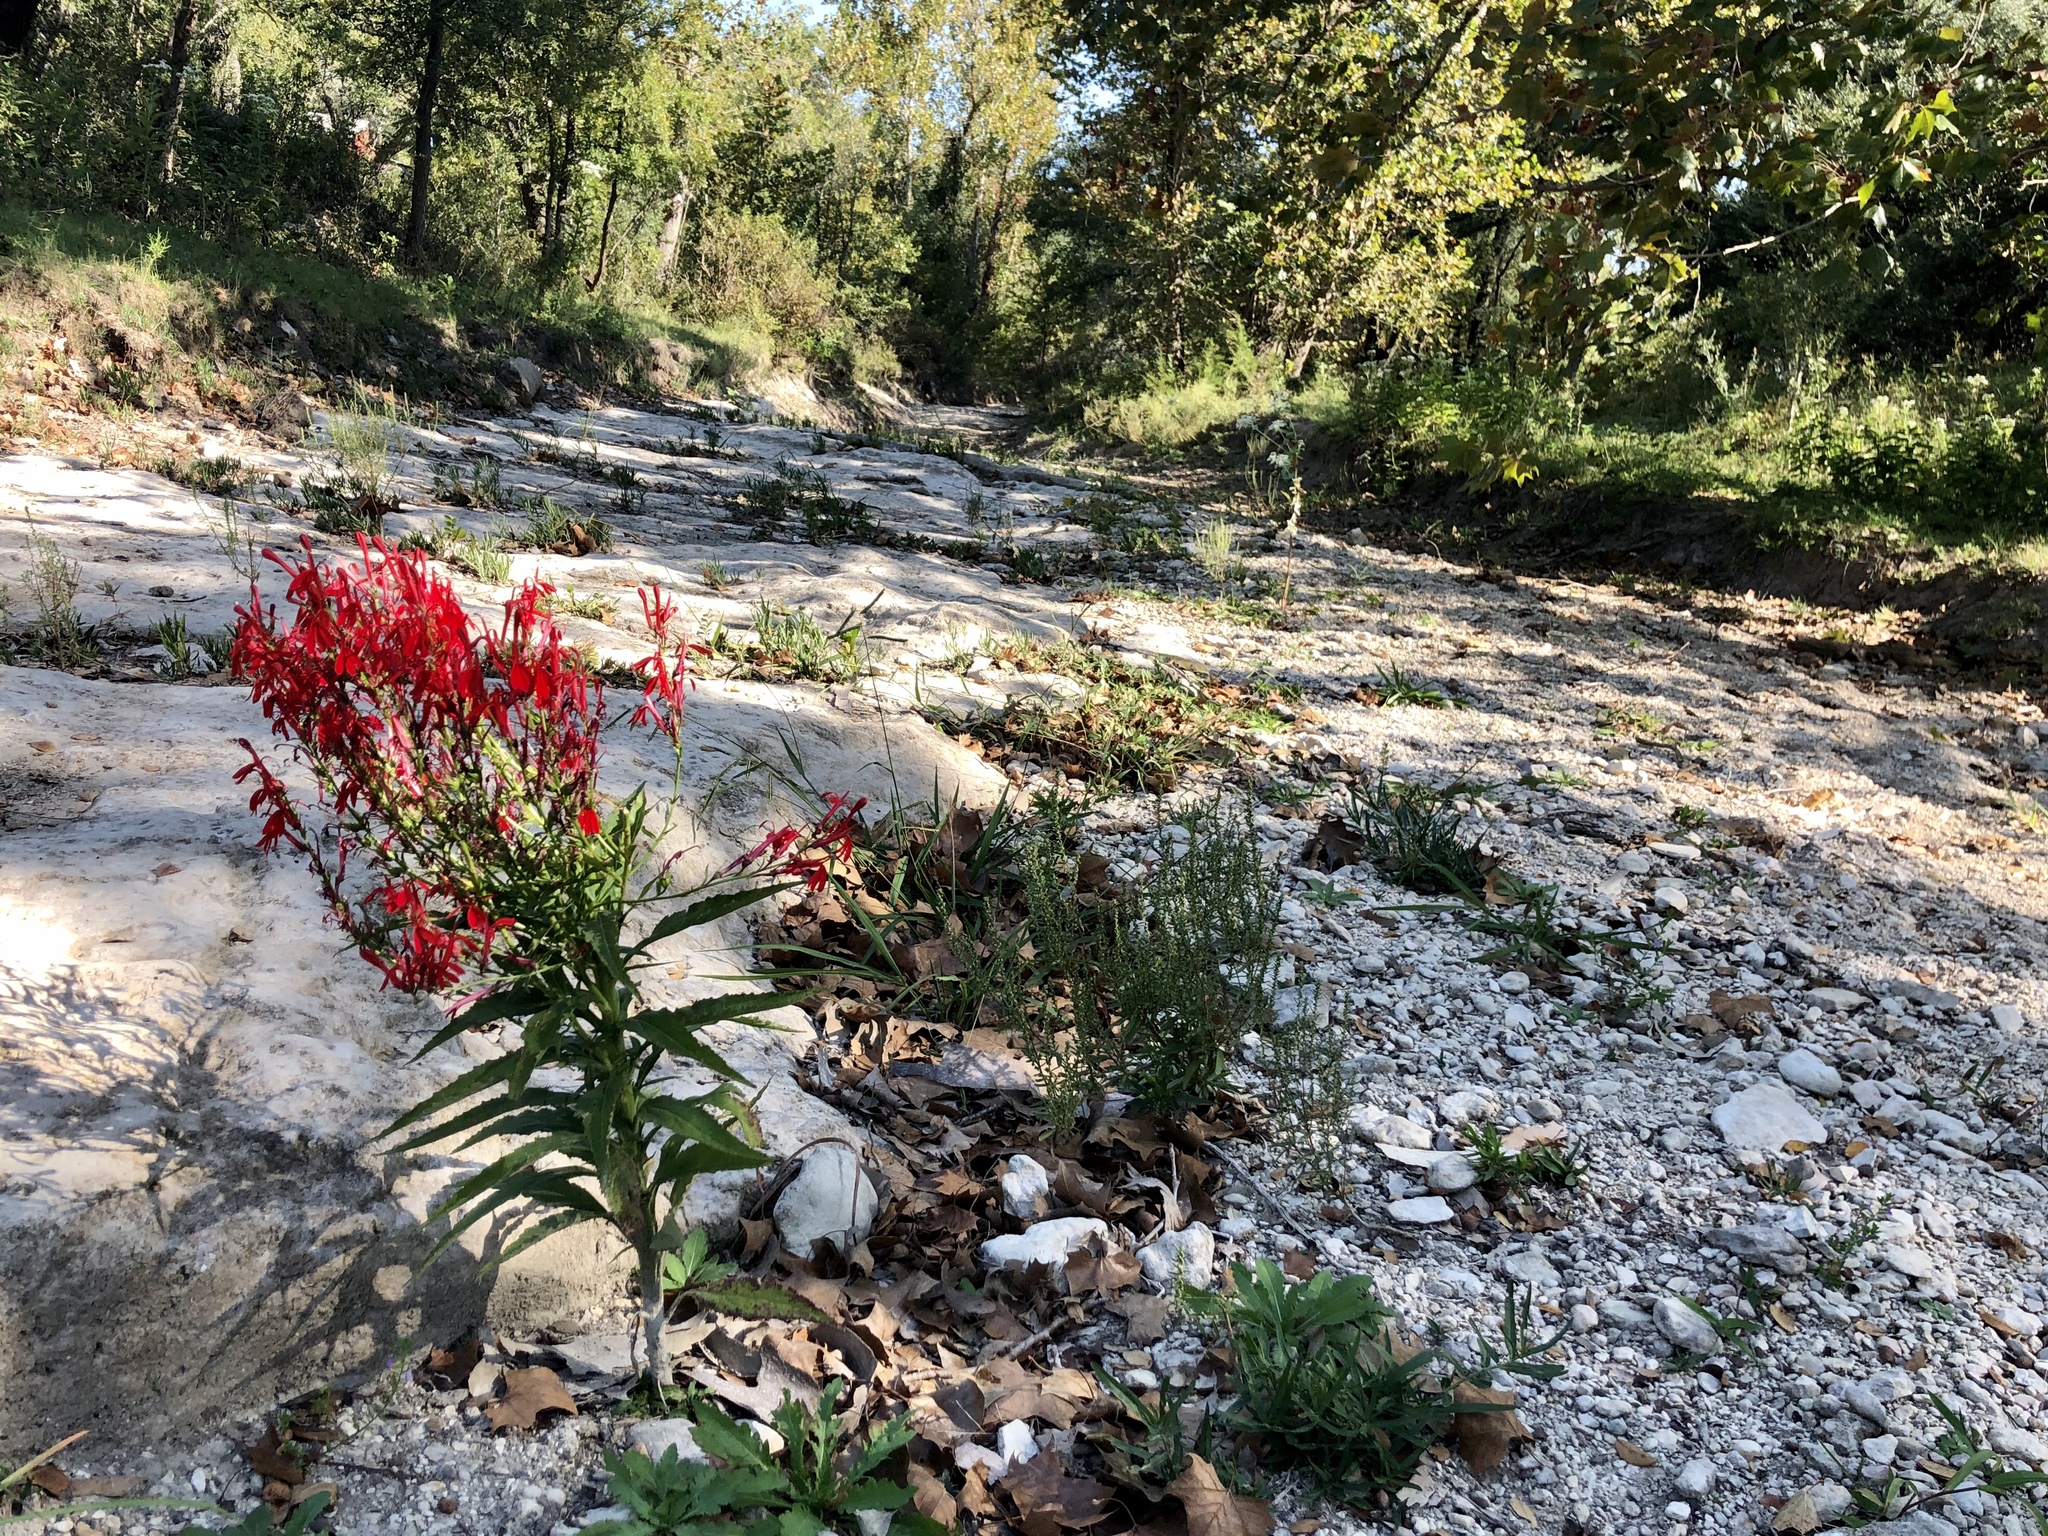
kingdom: Plantae
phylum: Tracheophyta
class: Magnoliopsida
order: Asterales
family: Campanulaceae
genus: Lobelia
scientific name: Lobelia cardinalis
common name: Cardinal flower
